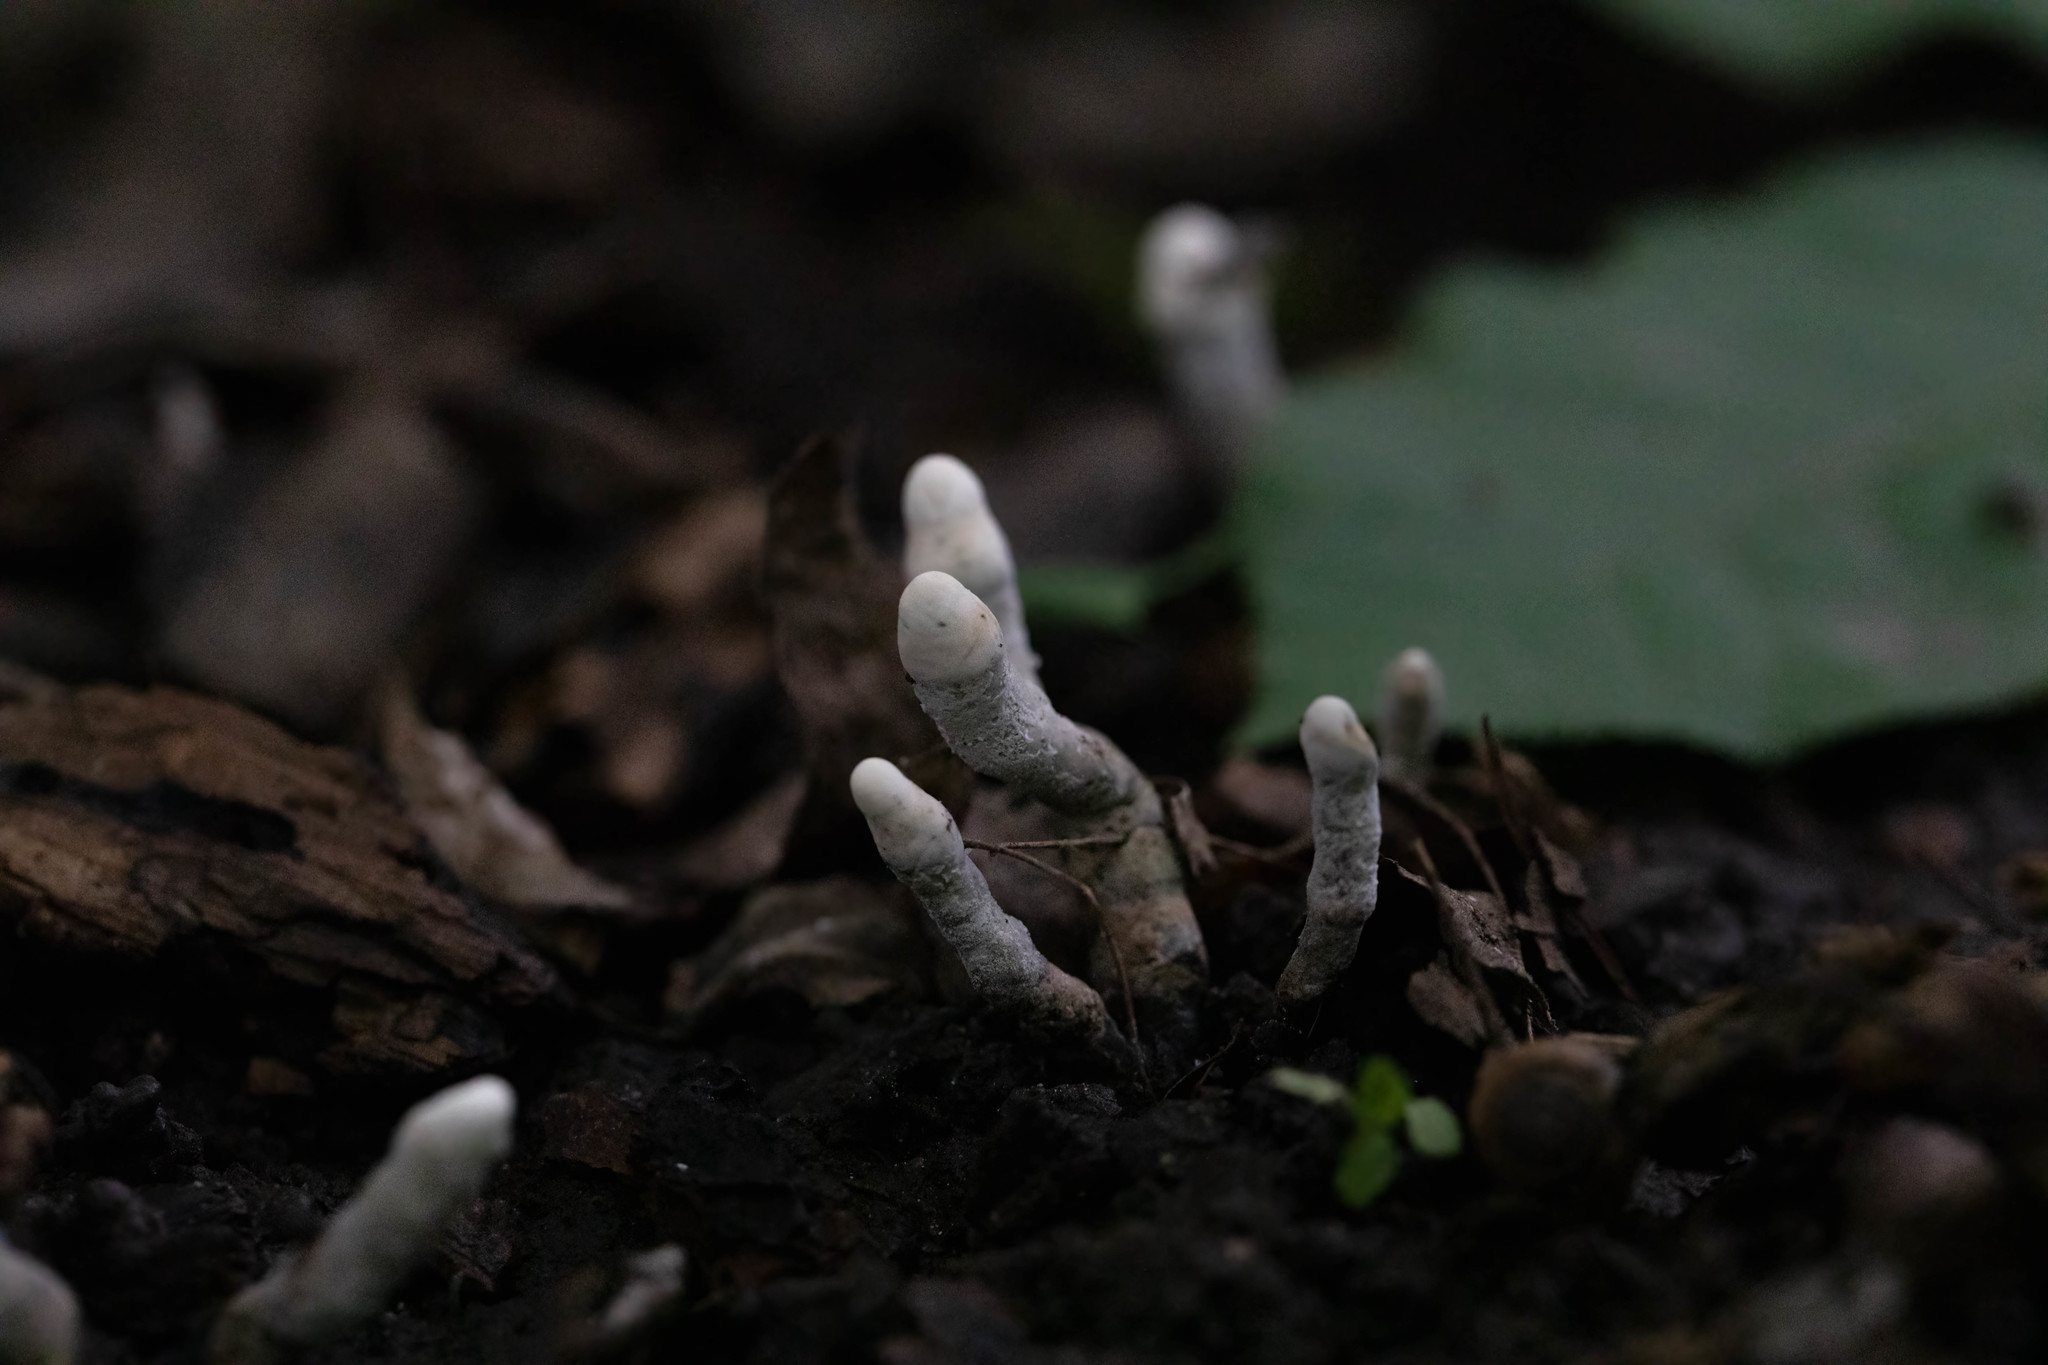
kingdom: Fungi
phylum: Ascomycota
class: Sordariomycetes
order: Xylariales
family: Xylariaceae
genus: Xylaria
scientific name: Xylaria polymorpha
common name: Dead man's fingers
